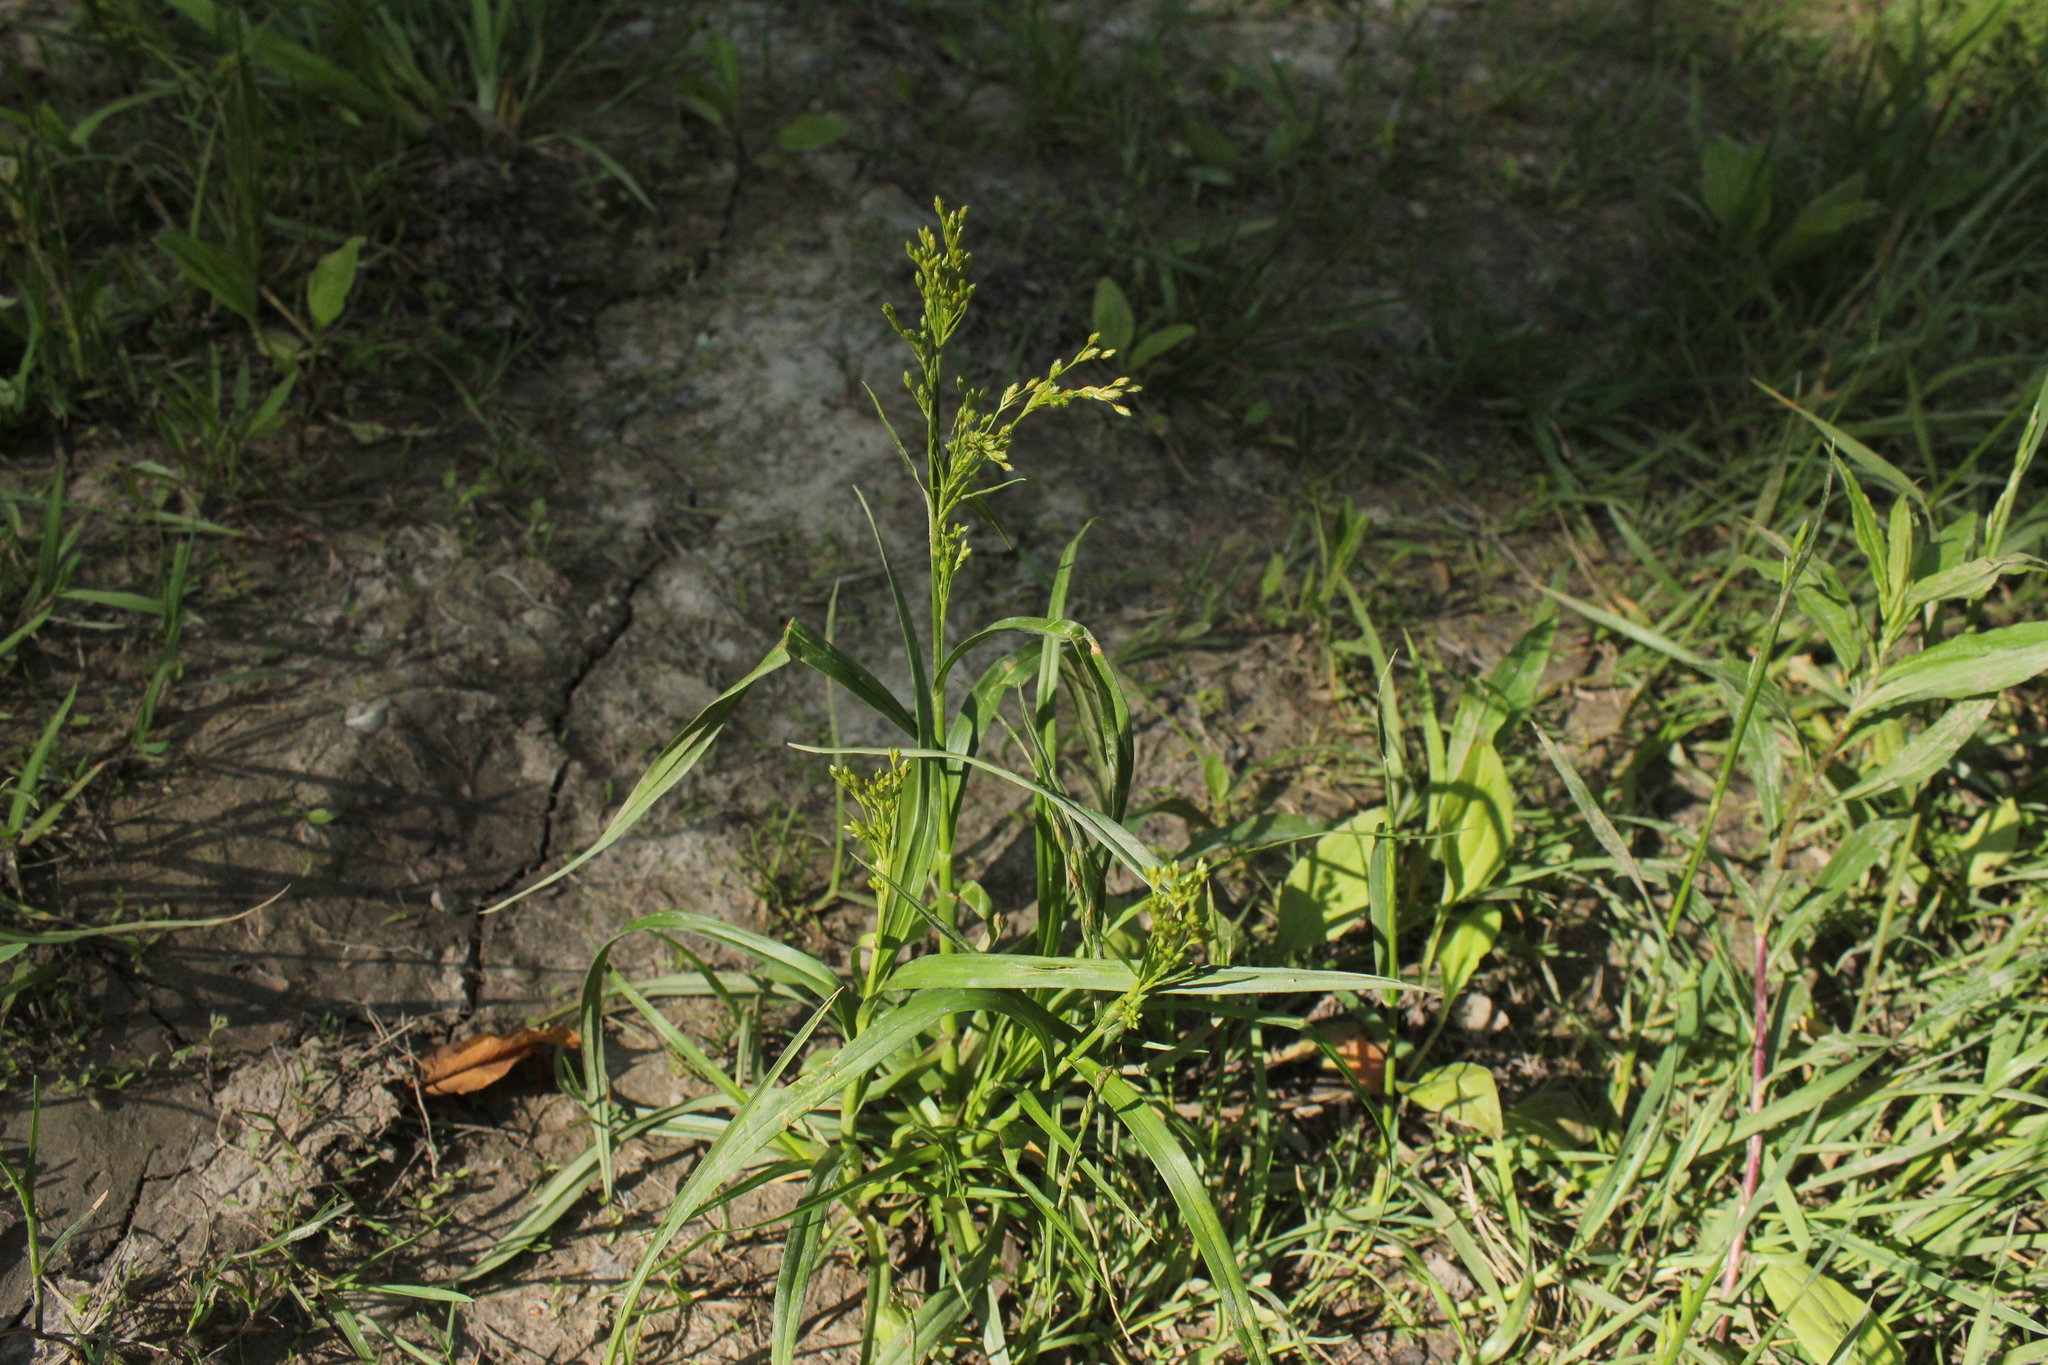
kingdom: Plantae
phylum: Tracheophyta
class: Liliopsida
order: Poales
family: Cyperaceae
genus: Scirpus
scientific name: Scirpus pendulus
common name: Nodding bulrush
